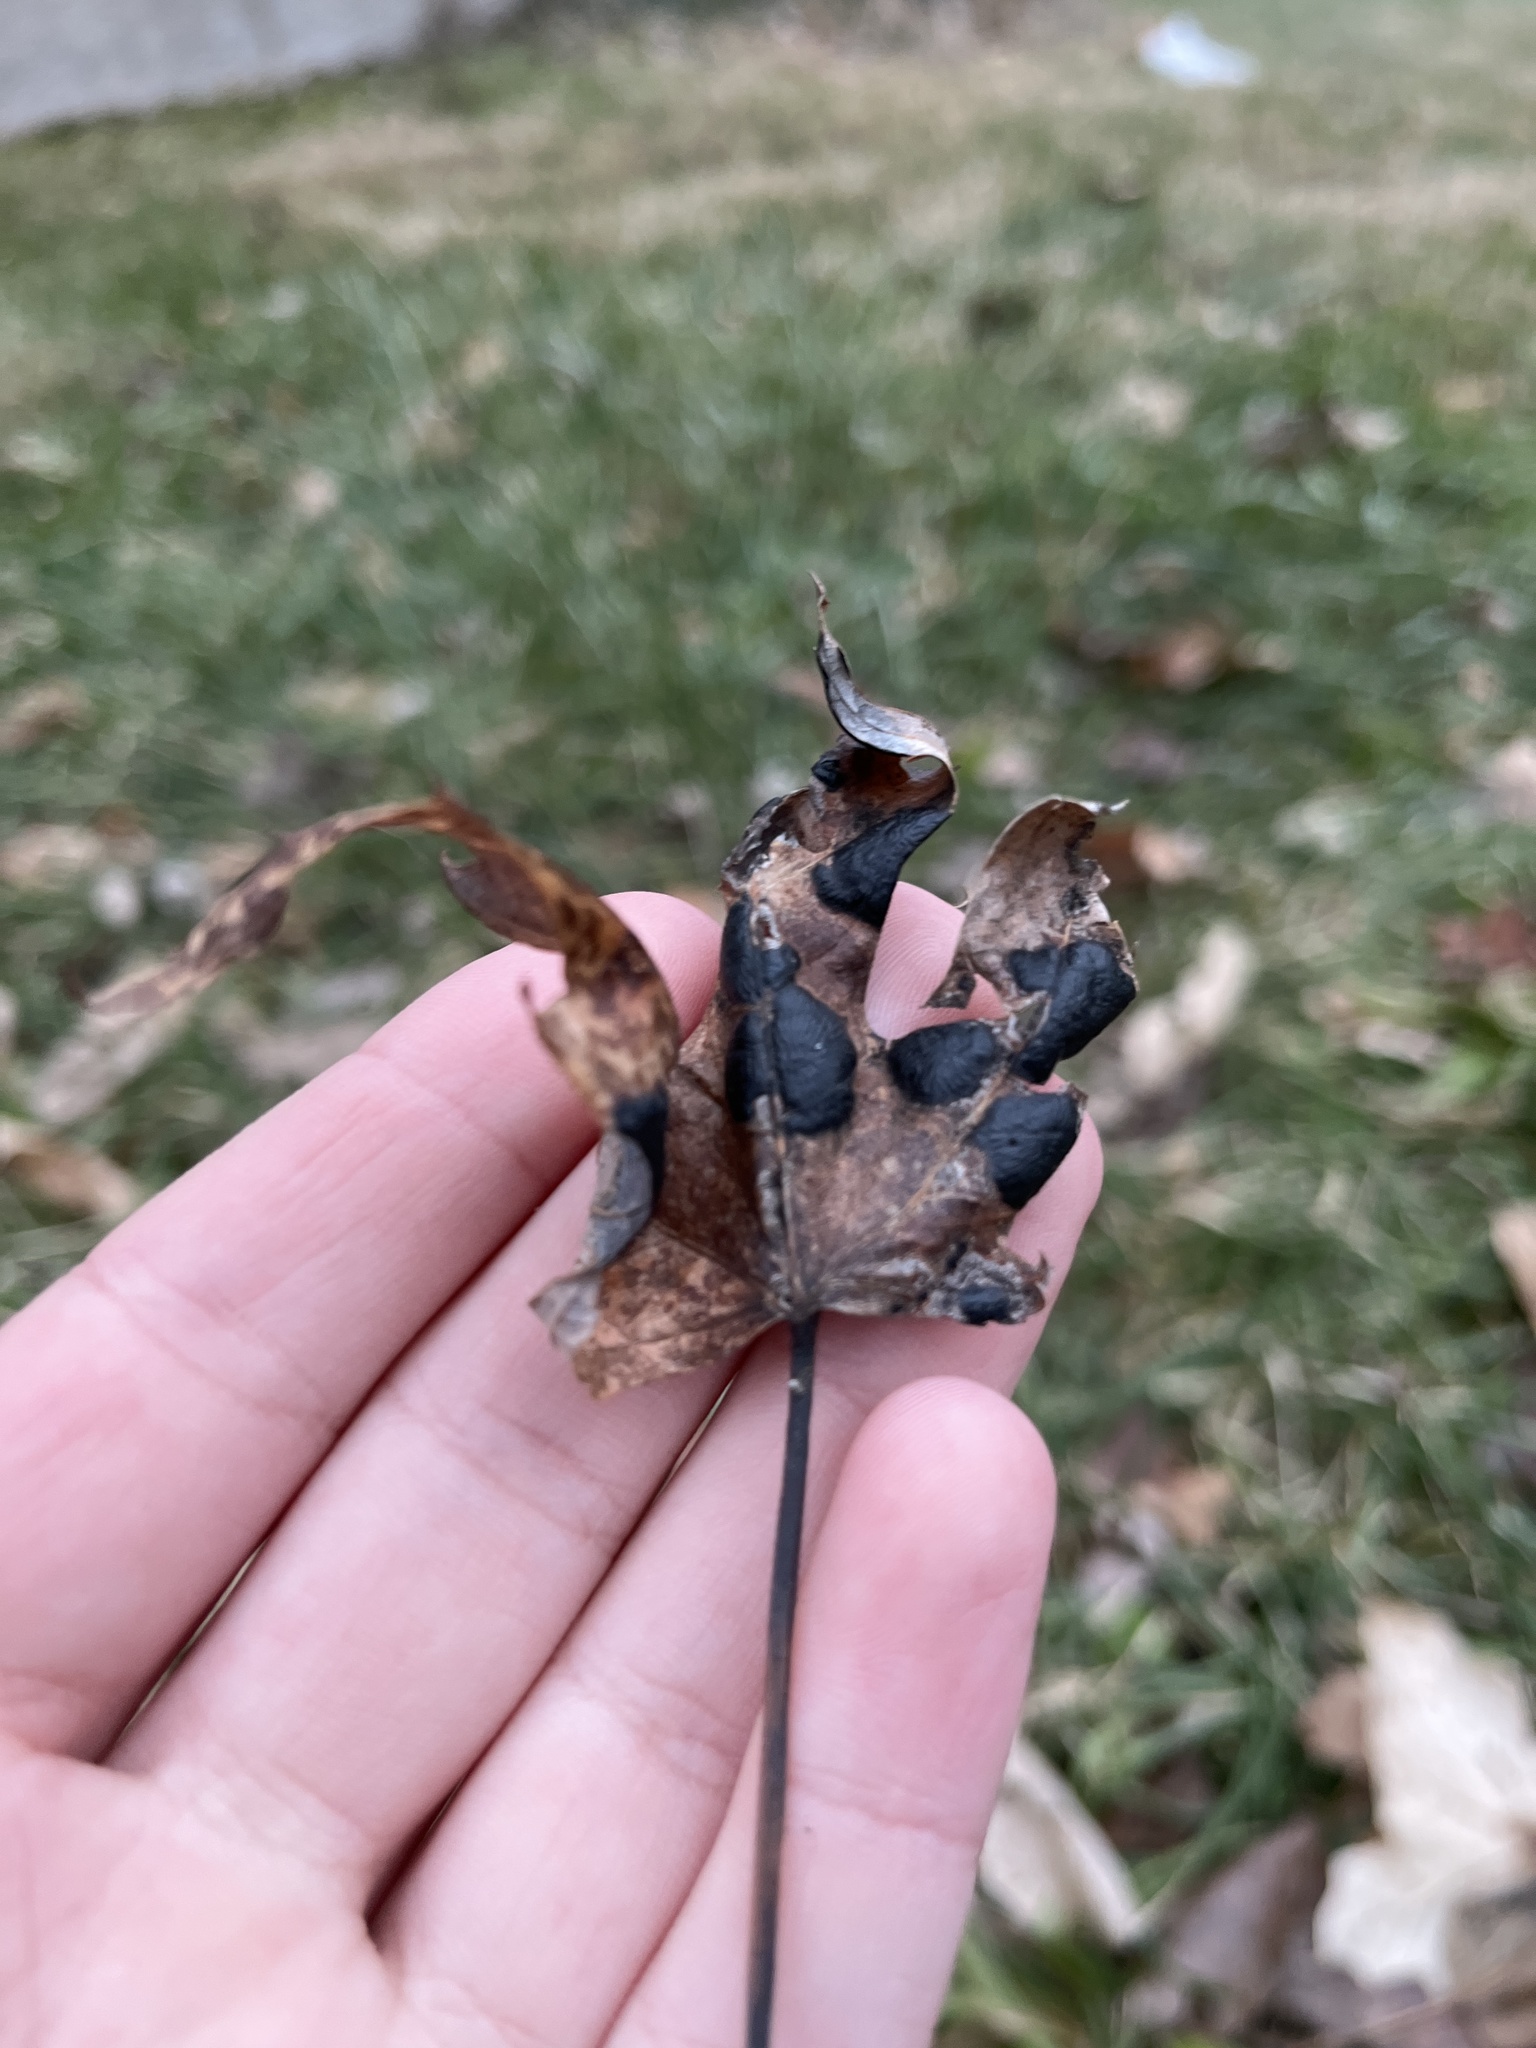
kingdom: Fungi
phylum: Ascomycota
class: Leotiomycetes
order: Rhytismatales
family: Rhytismataceae
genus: Rhytisma
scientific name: Rhytisma americanum
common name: American tar spot
